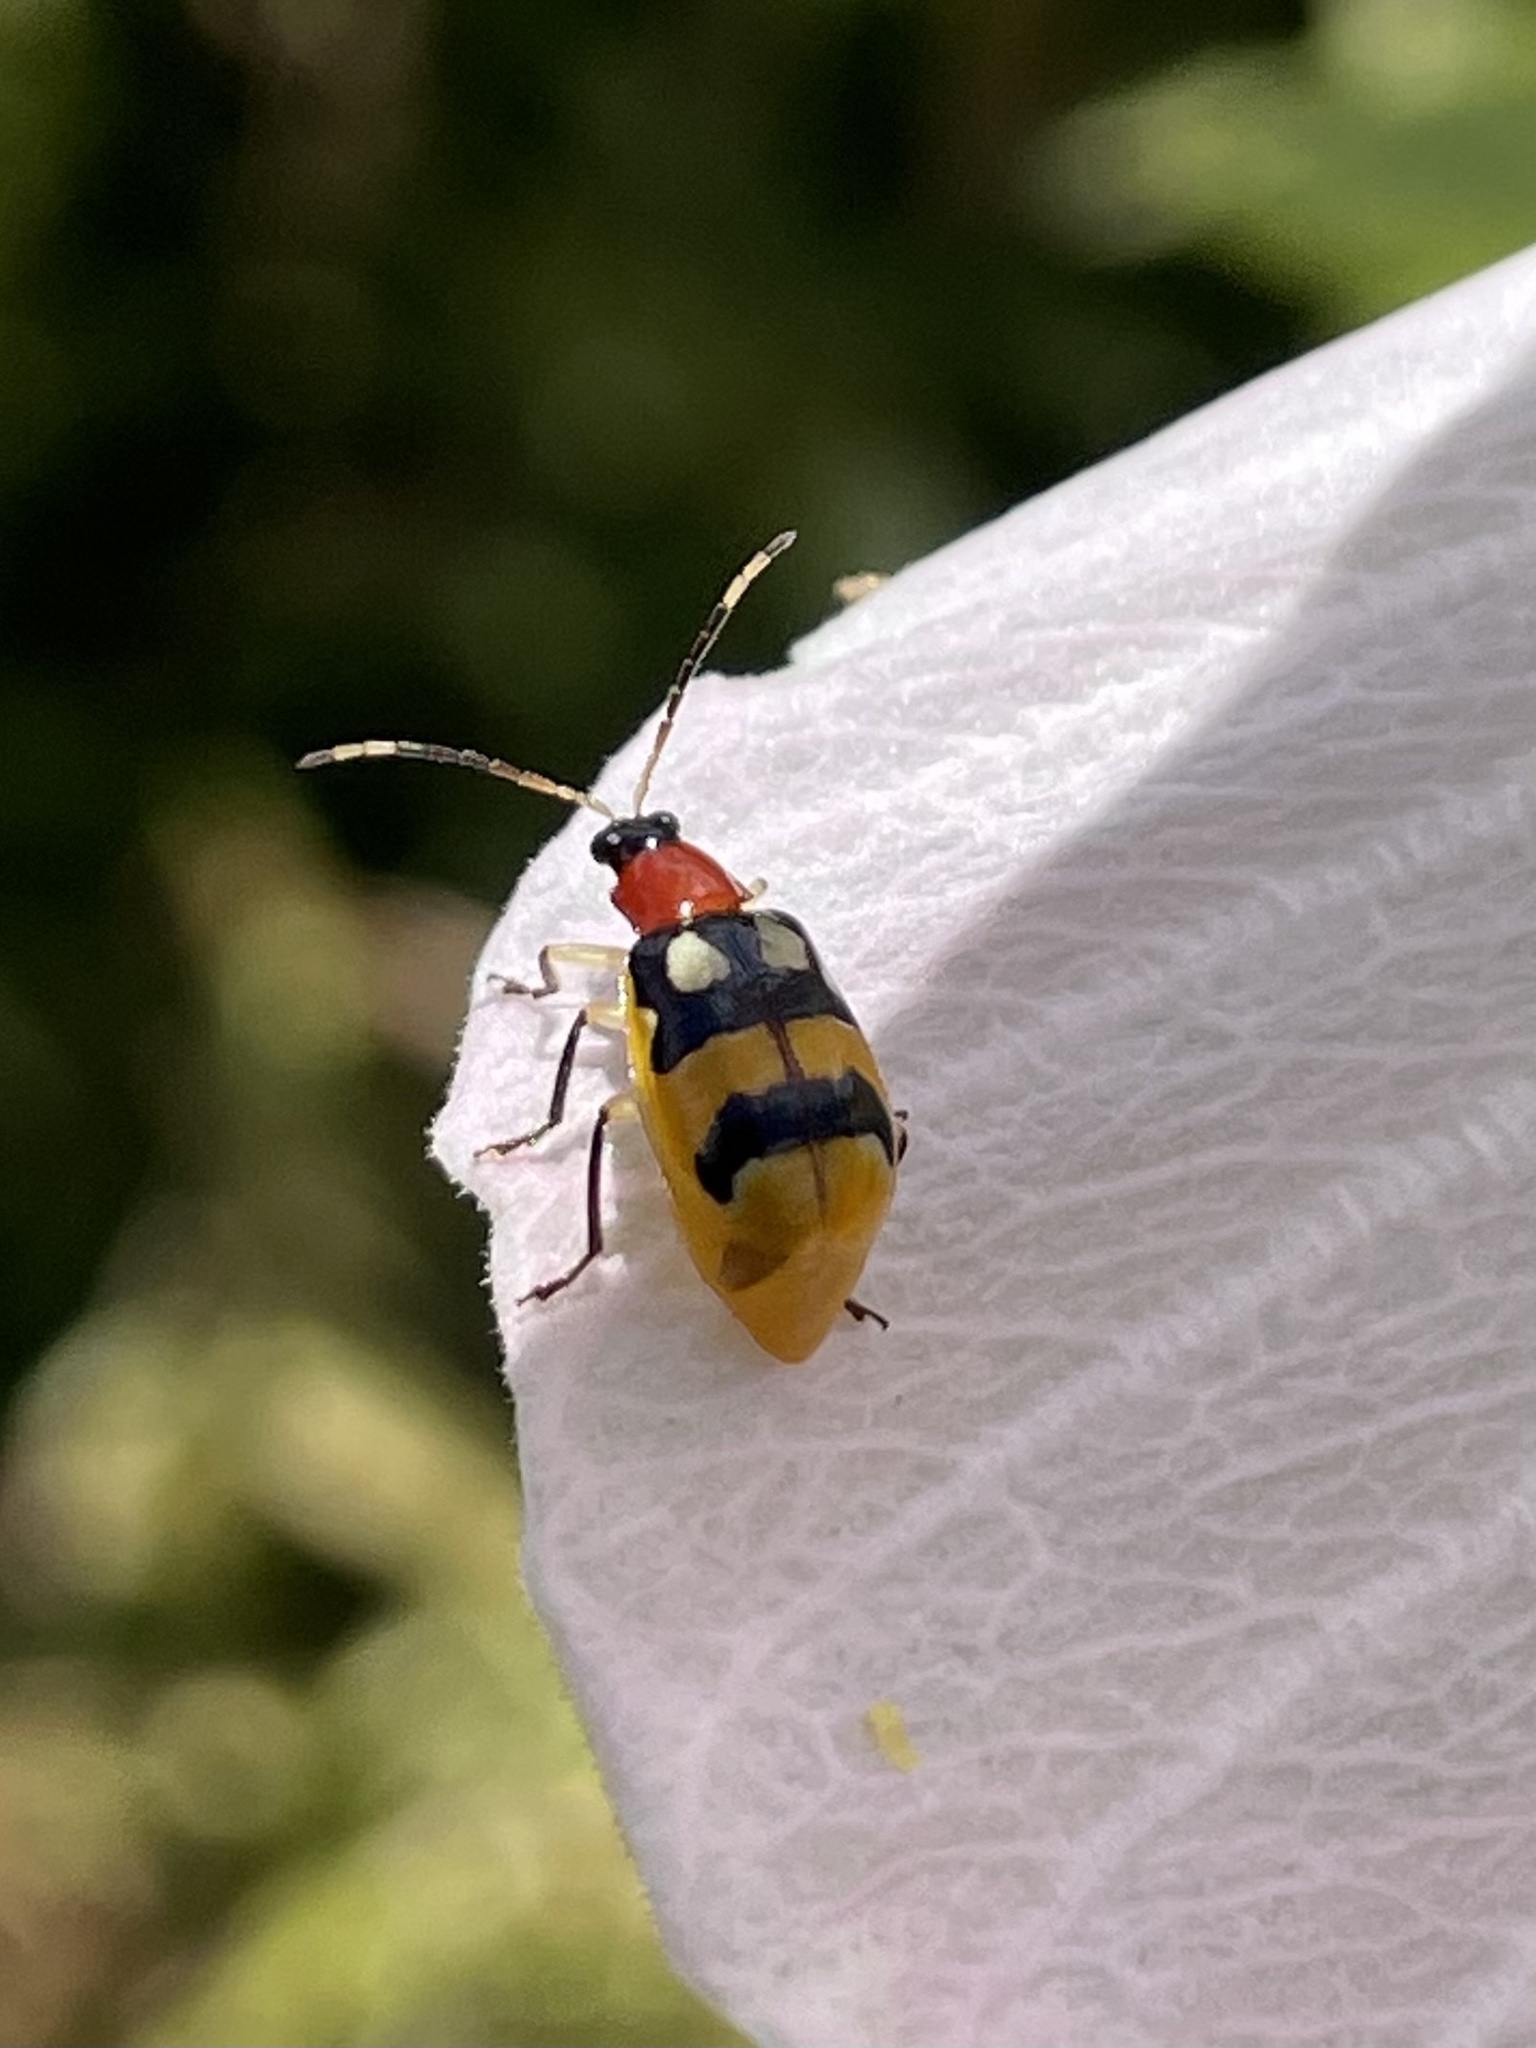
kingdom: Animalia
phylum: Arthropoda
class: Insecta
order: Coleoptera
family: Chrysomelidae
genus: Diabrotica
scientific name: Diabrotica adelpha
